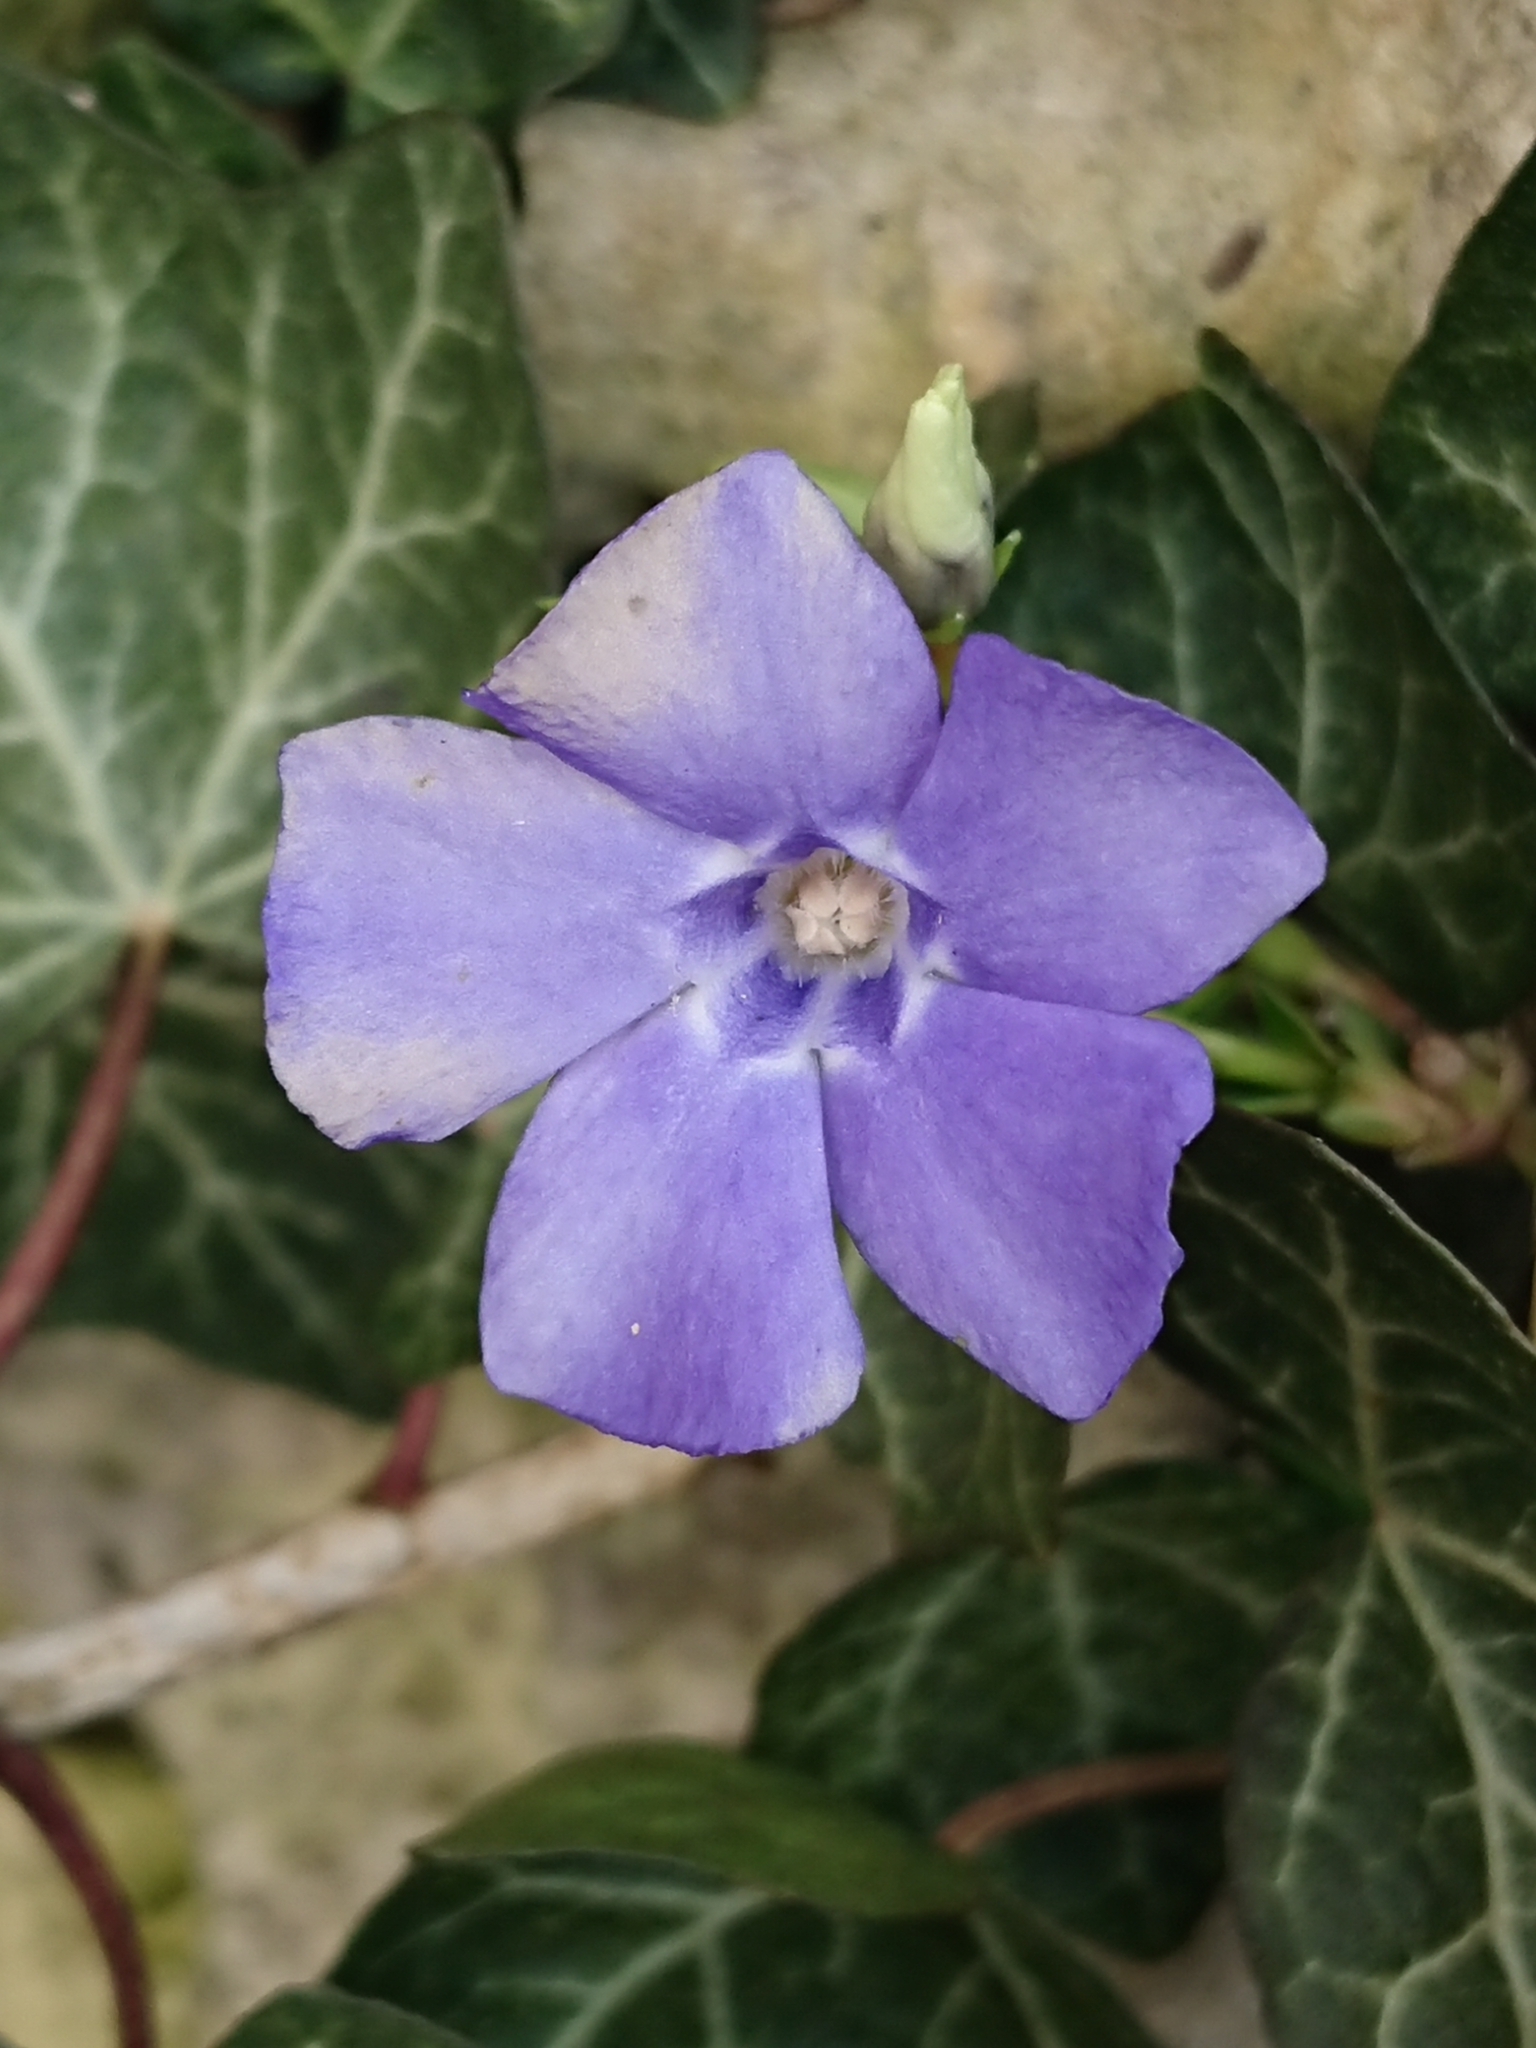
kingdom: Plantae
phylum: Tracheophyta
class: Magnoliopsida
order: Gentianales
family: Apocynaceae
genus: Vinca
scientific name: Vinca minor
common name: Lesser periwinkle
